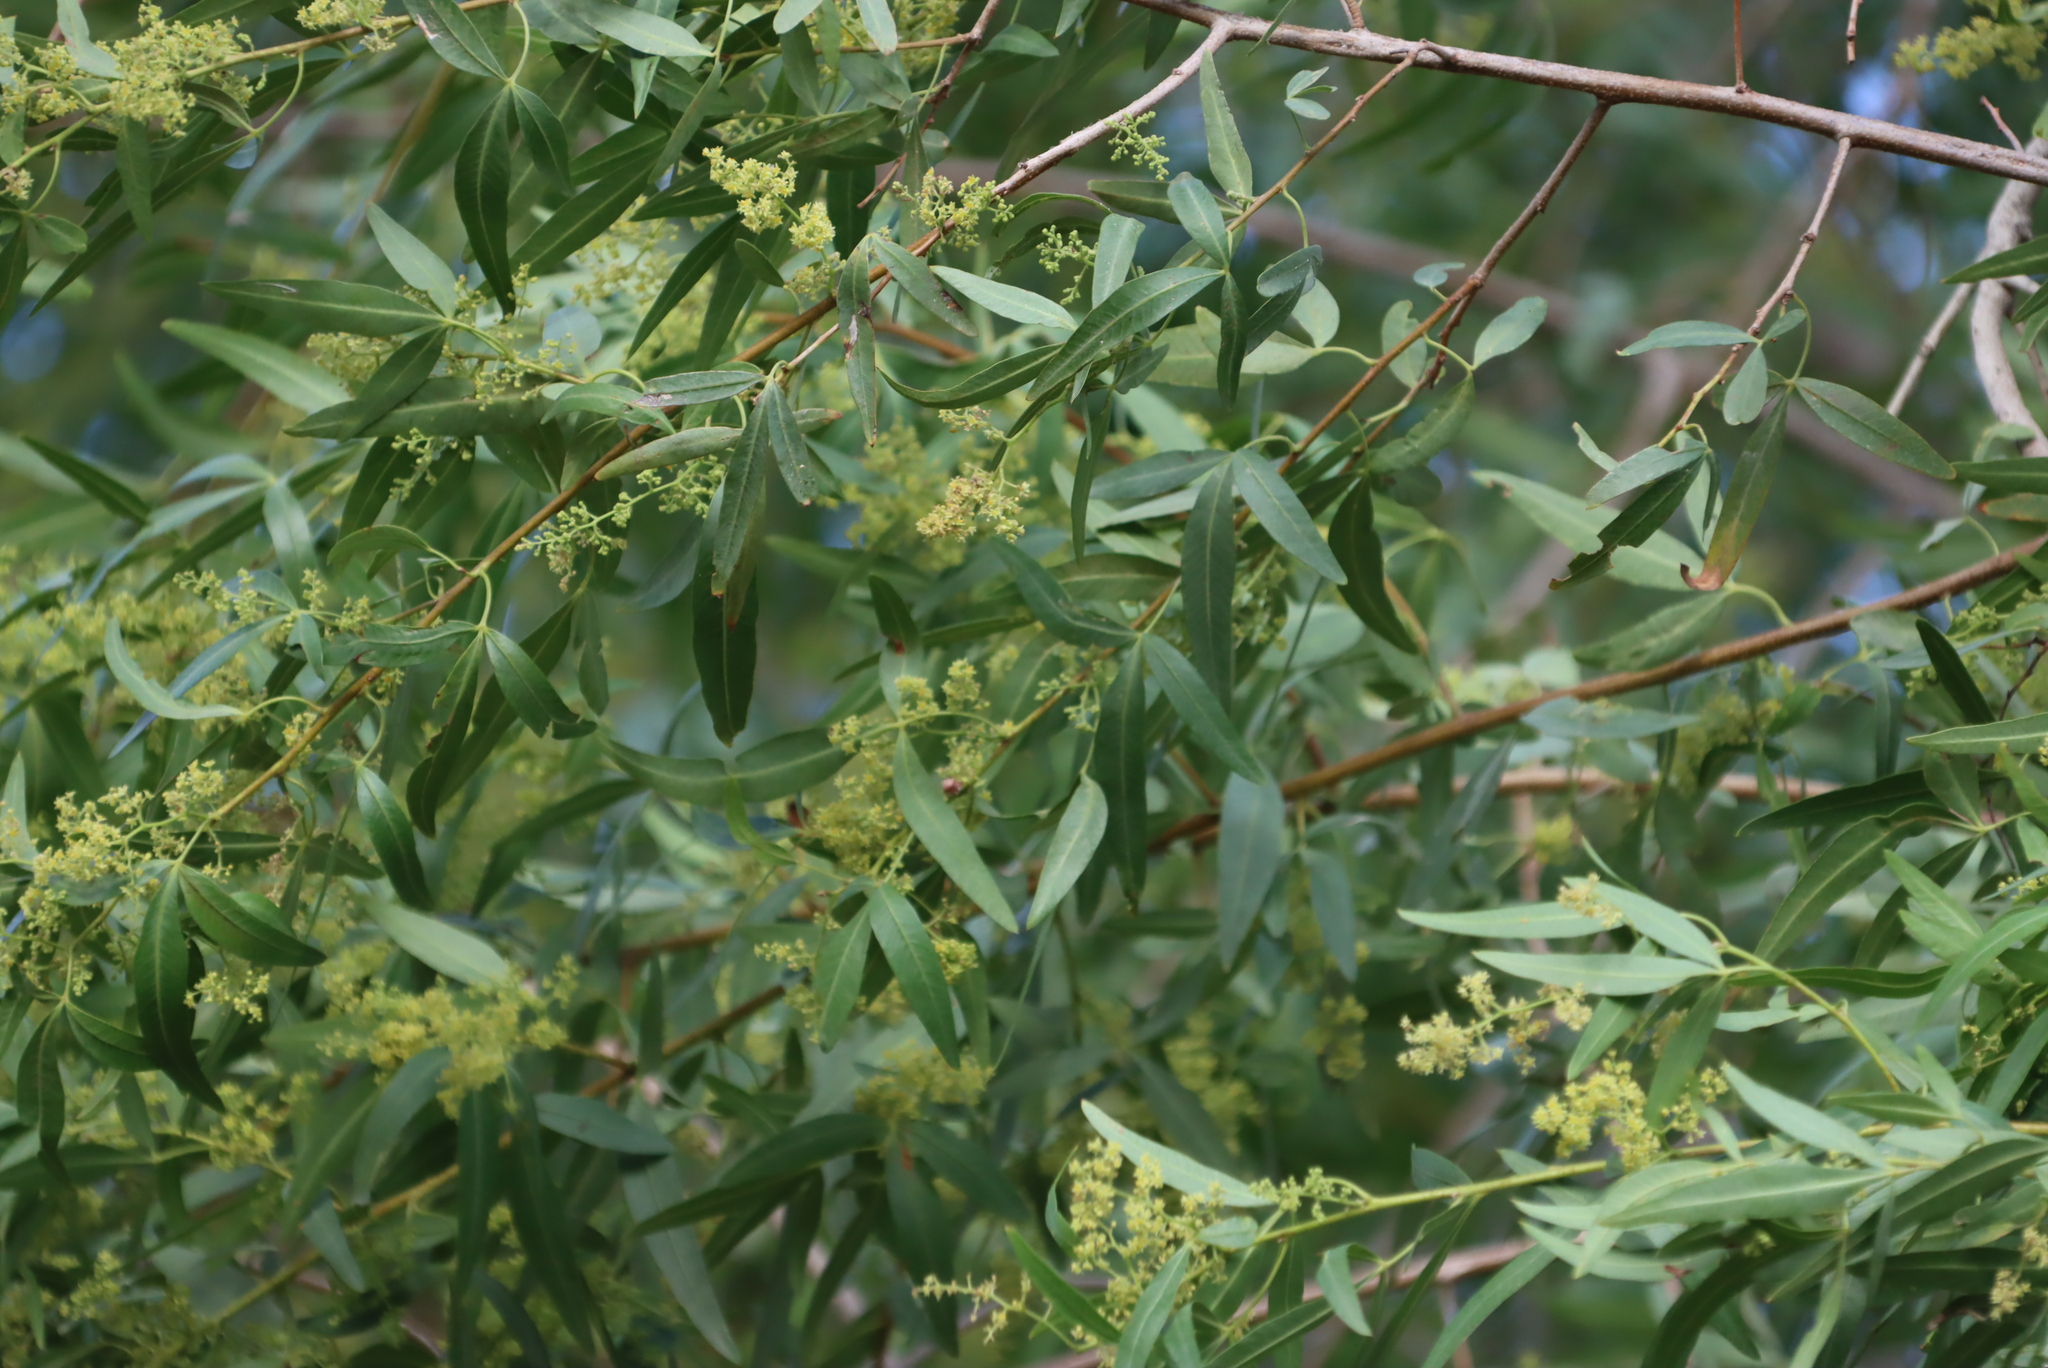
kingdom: Plantae
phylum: Tracheophyta
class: Magnoliopsida
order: Sapindales
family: Anacardiaceae
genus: Searsia
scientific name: Searsia pendulina
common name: White karee
